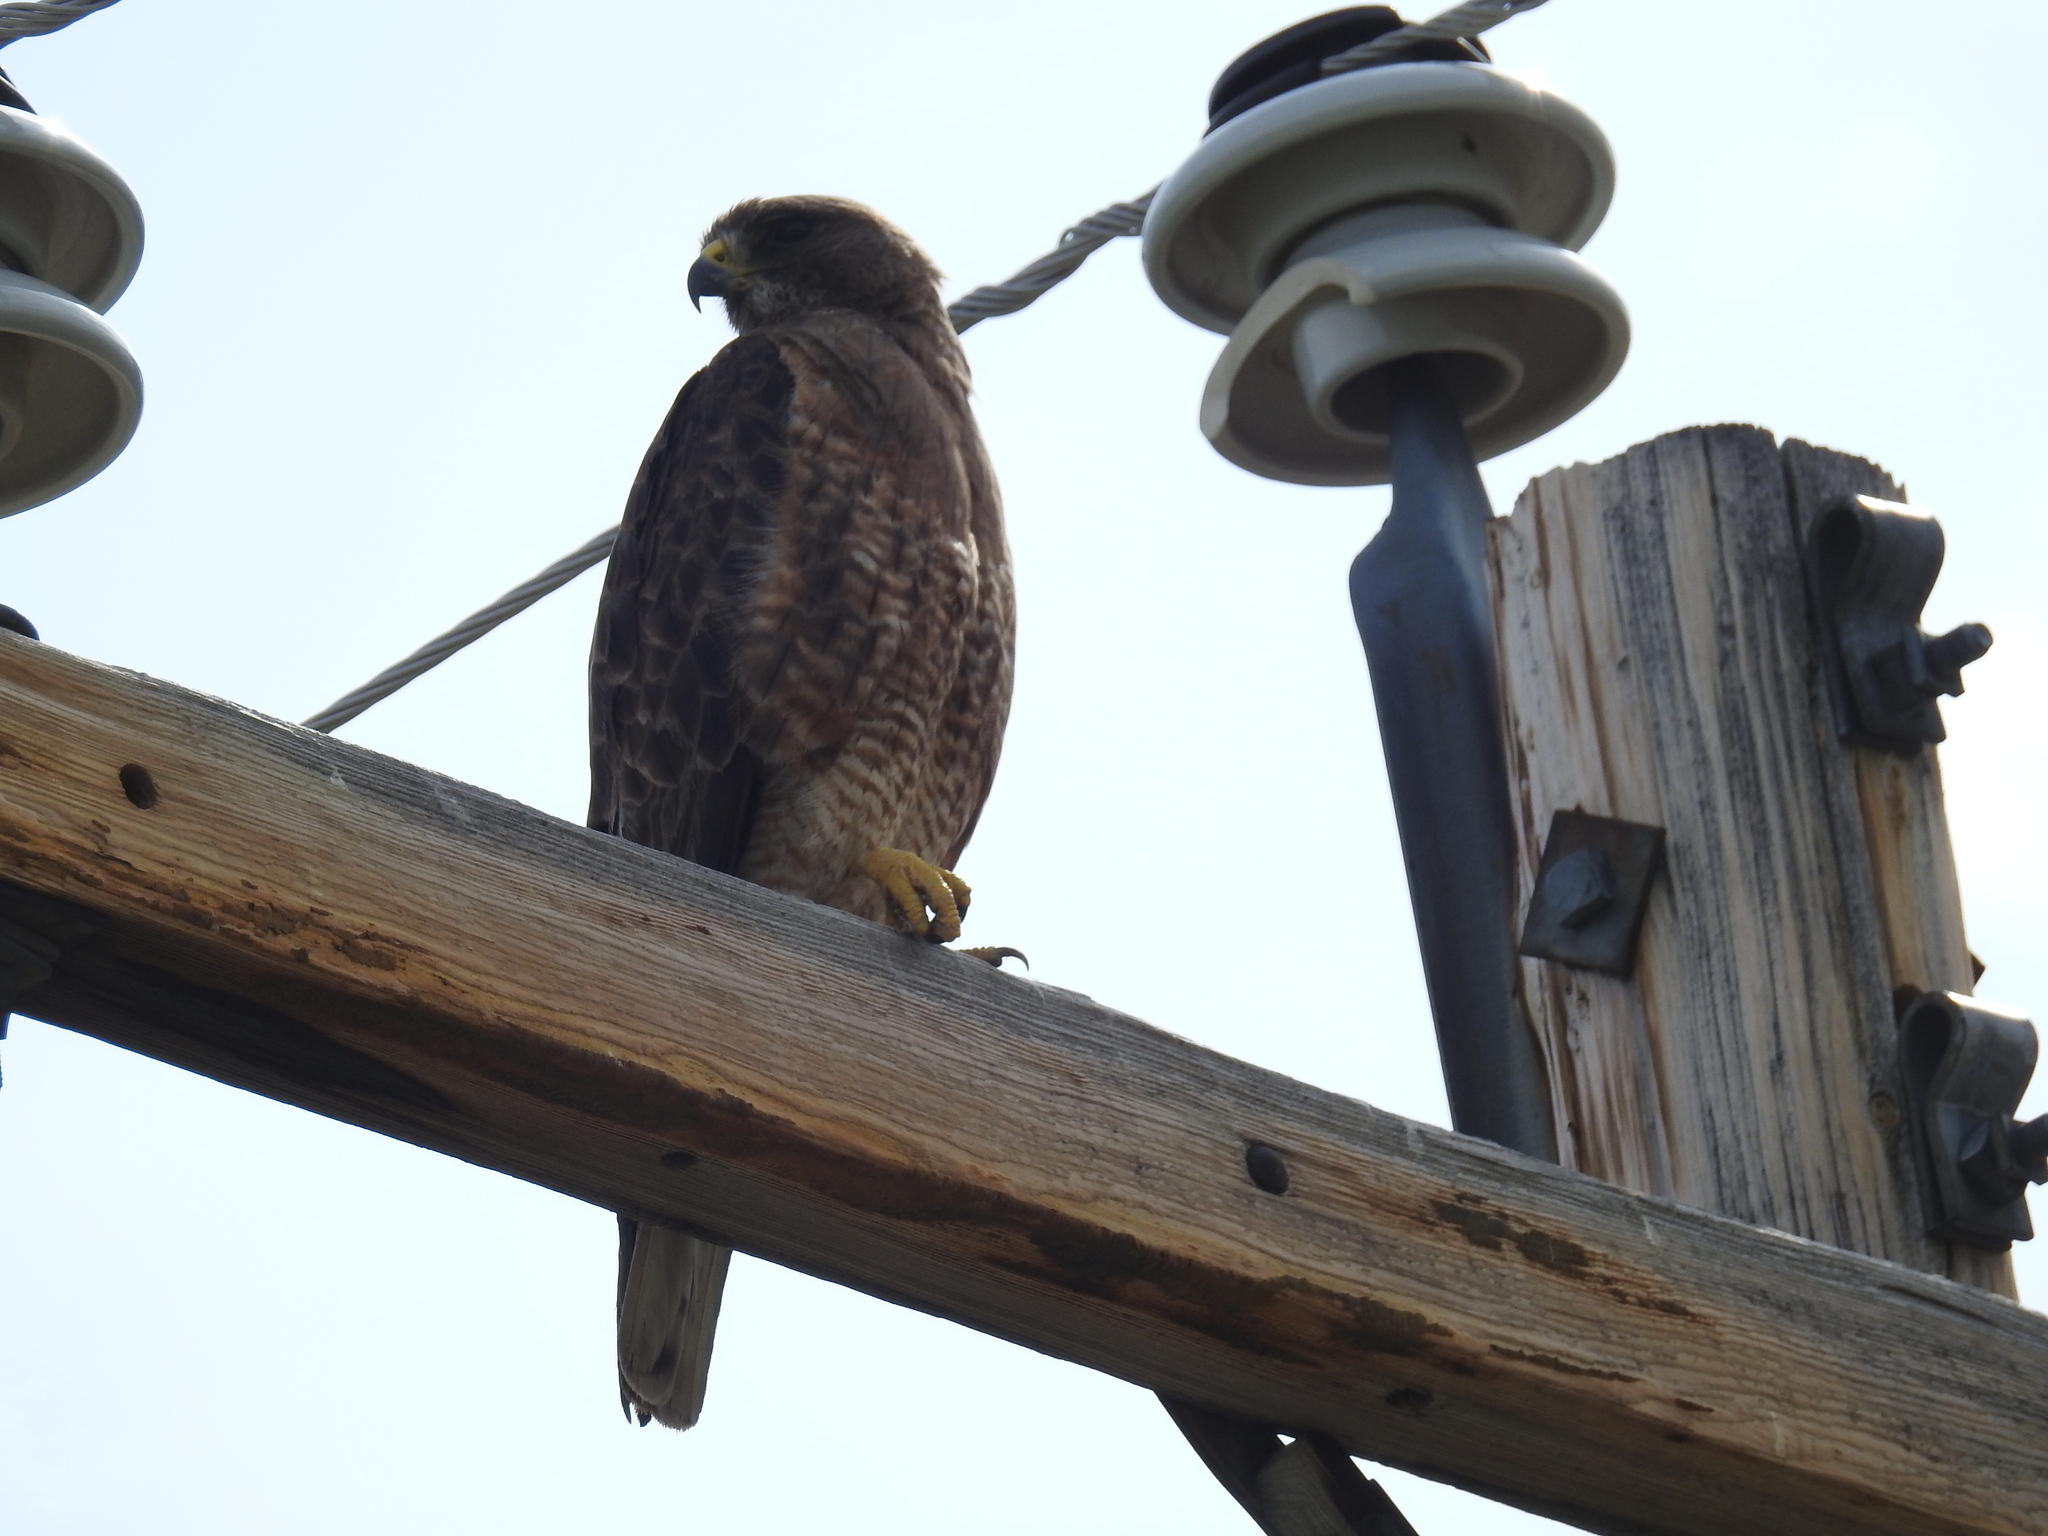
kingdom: Animalia
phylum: Chordata
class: Aves
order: Accipitriformes
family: Accipitridae
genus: Buteo
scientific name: Buteo swainsoni
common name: Swainson's hawk
